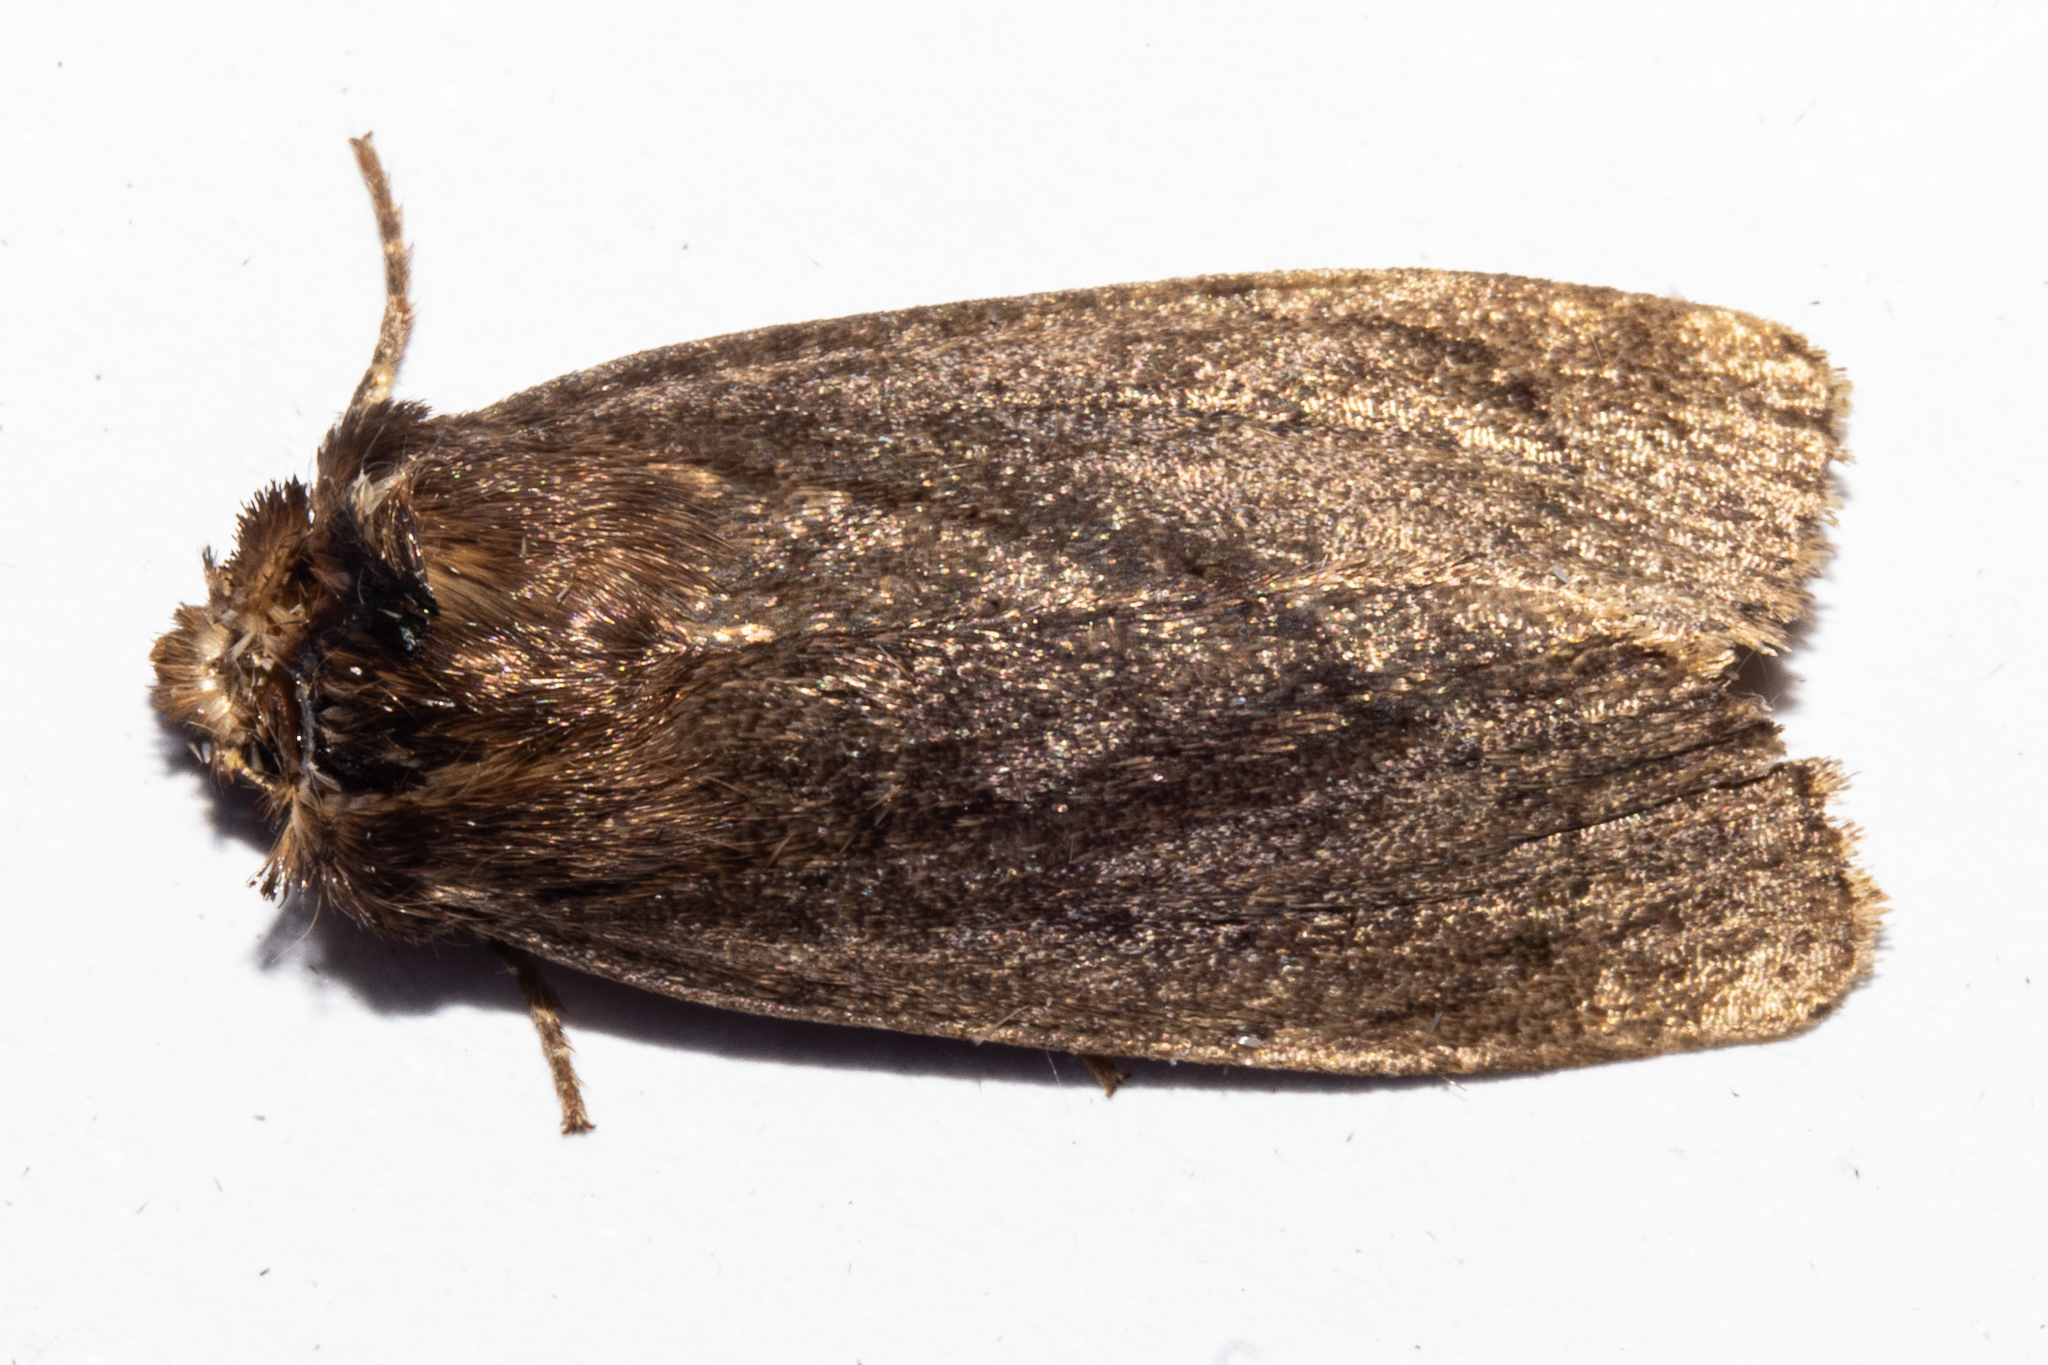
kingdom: Animalia
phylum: Arthropoda
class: Insecta
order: Lepidoptera
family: Noctuidae
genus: Bityla
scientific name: Bityla defigurata
